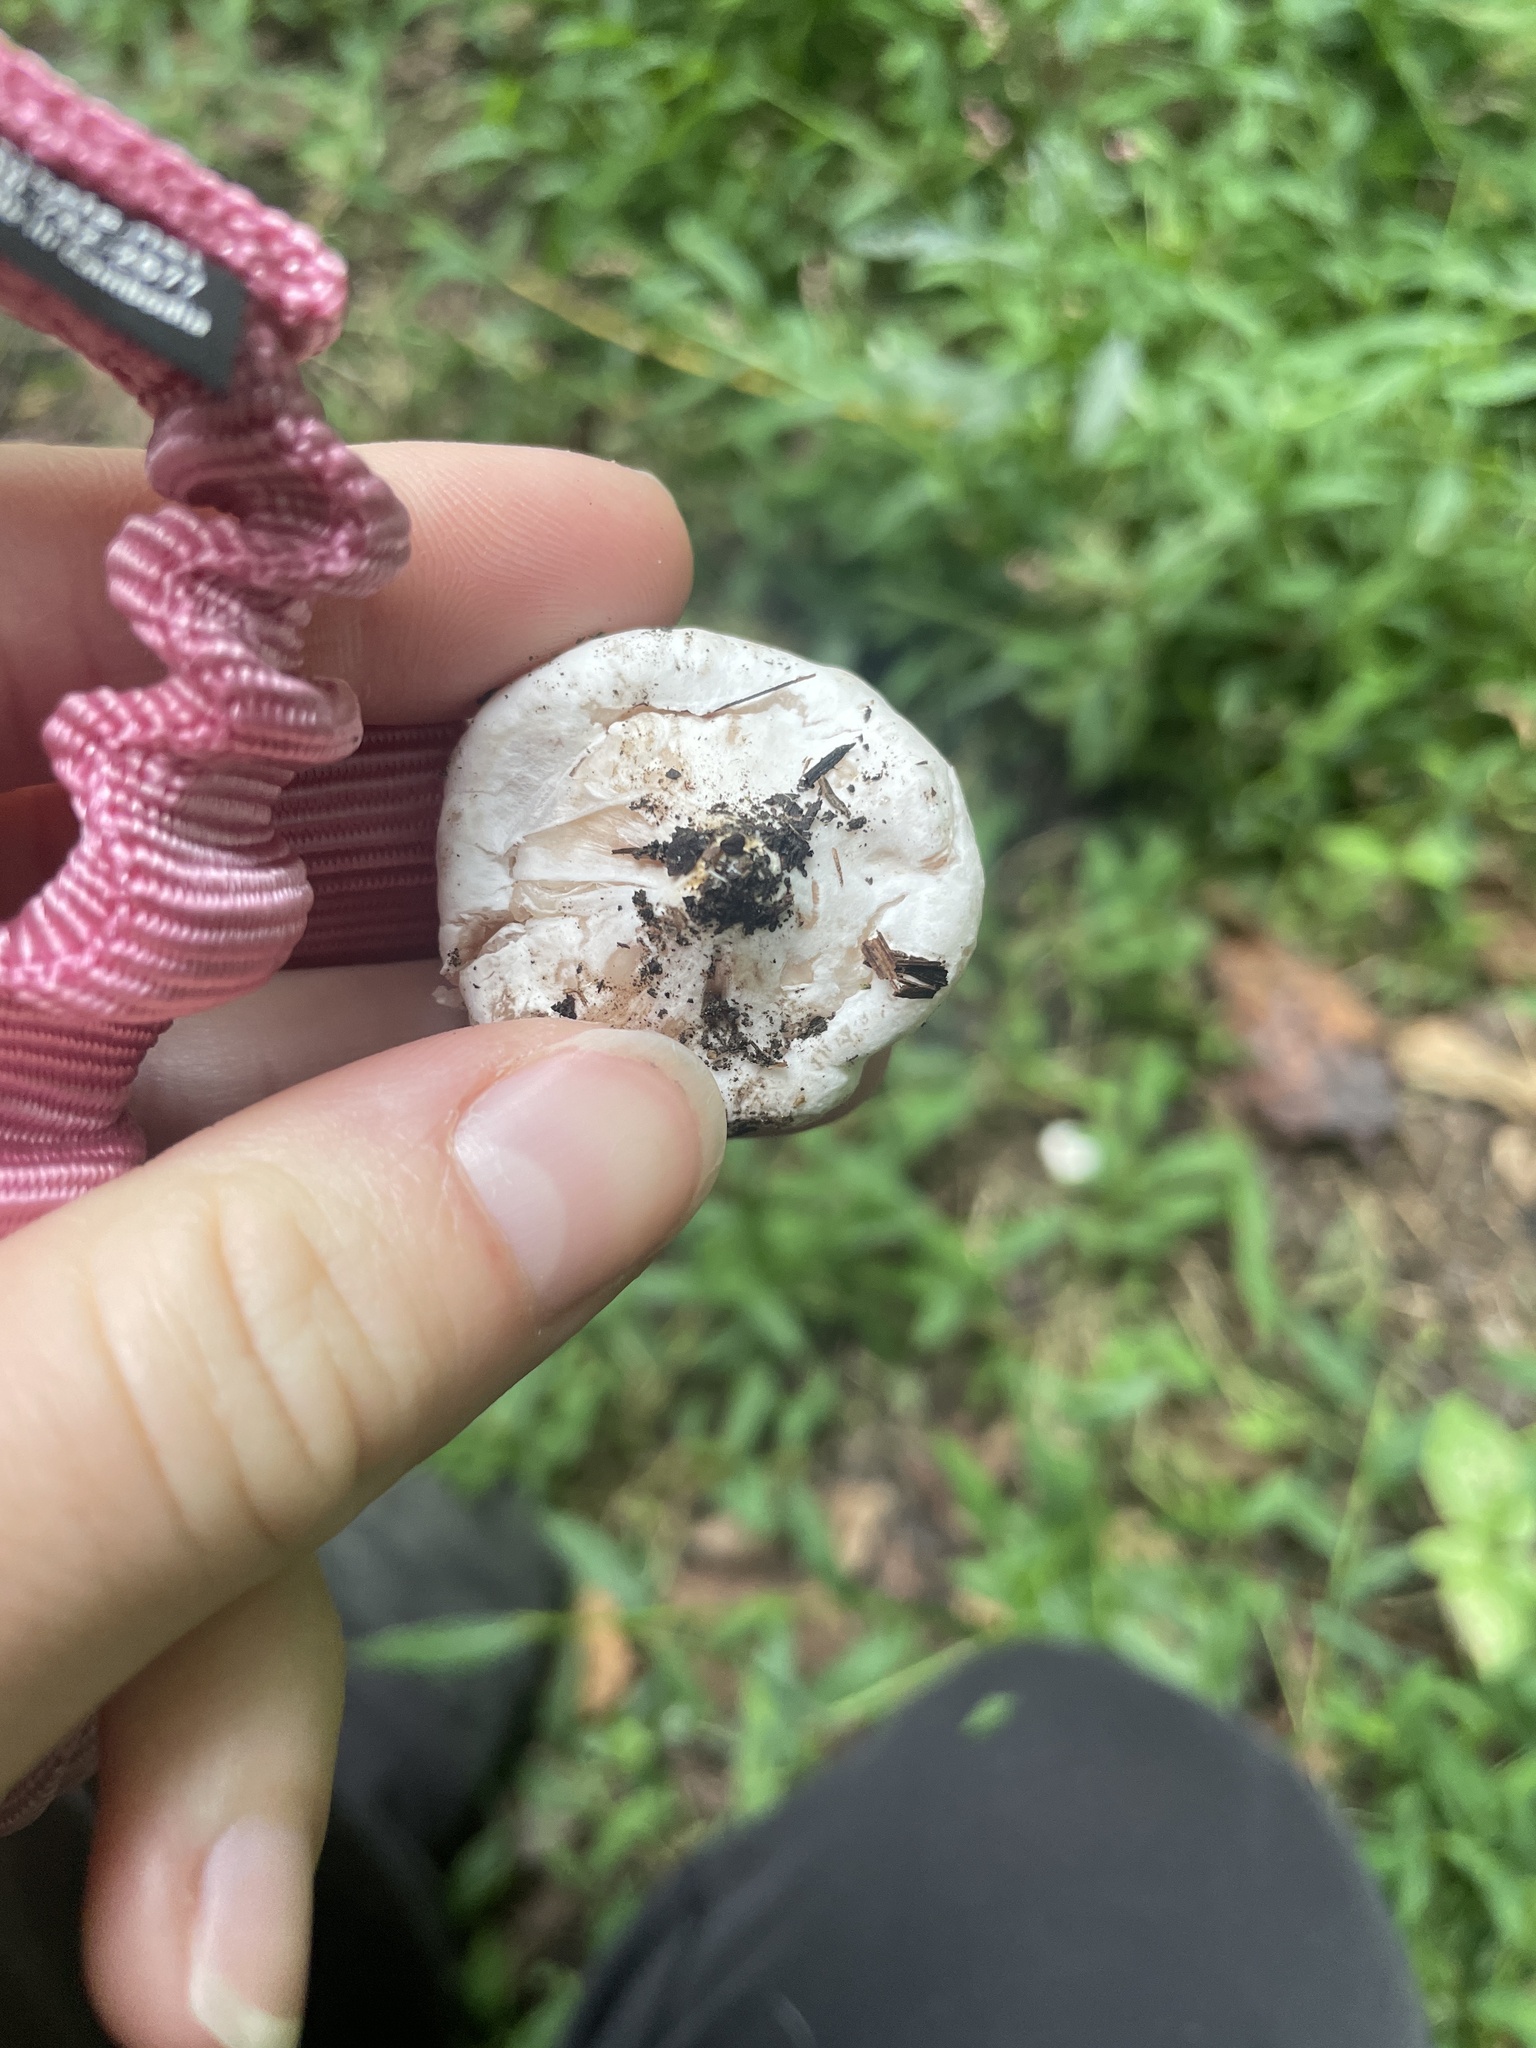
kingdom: Fungi
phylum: Basidiomycota
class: Agaricomycetes
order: Agaricales
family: Entolomataceae
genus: Entoloma
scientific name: Entoloma abortivum
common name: Aborted entoloma
